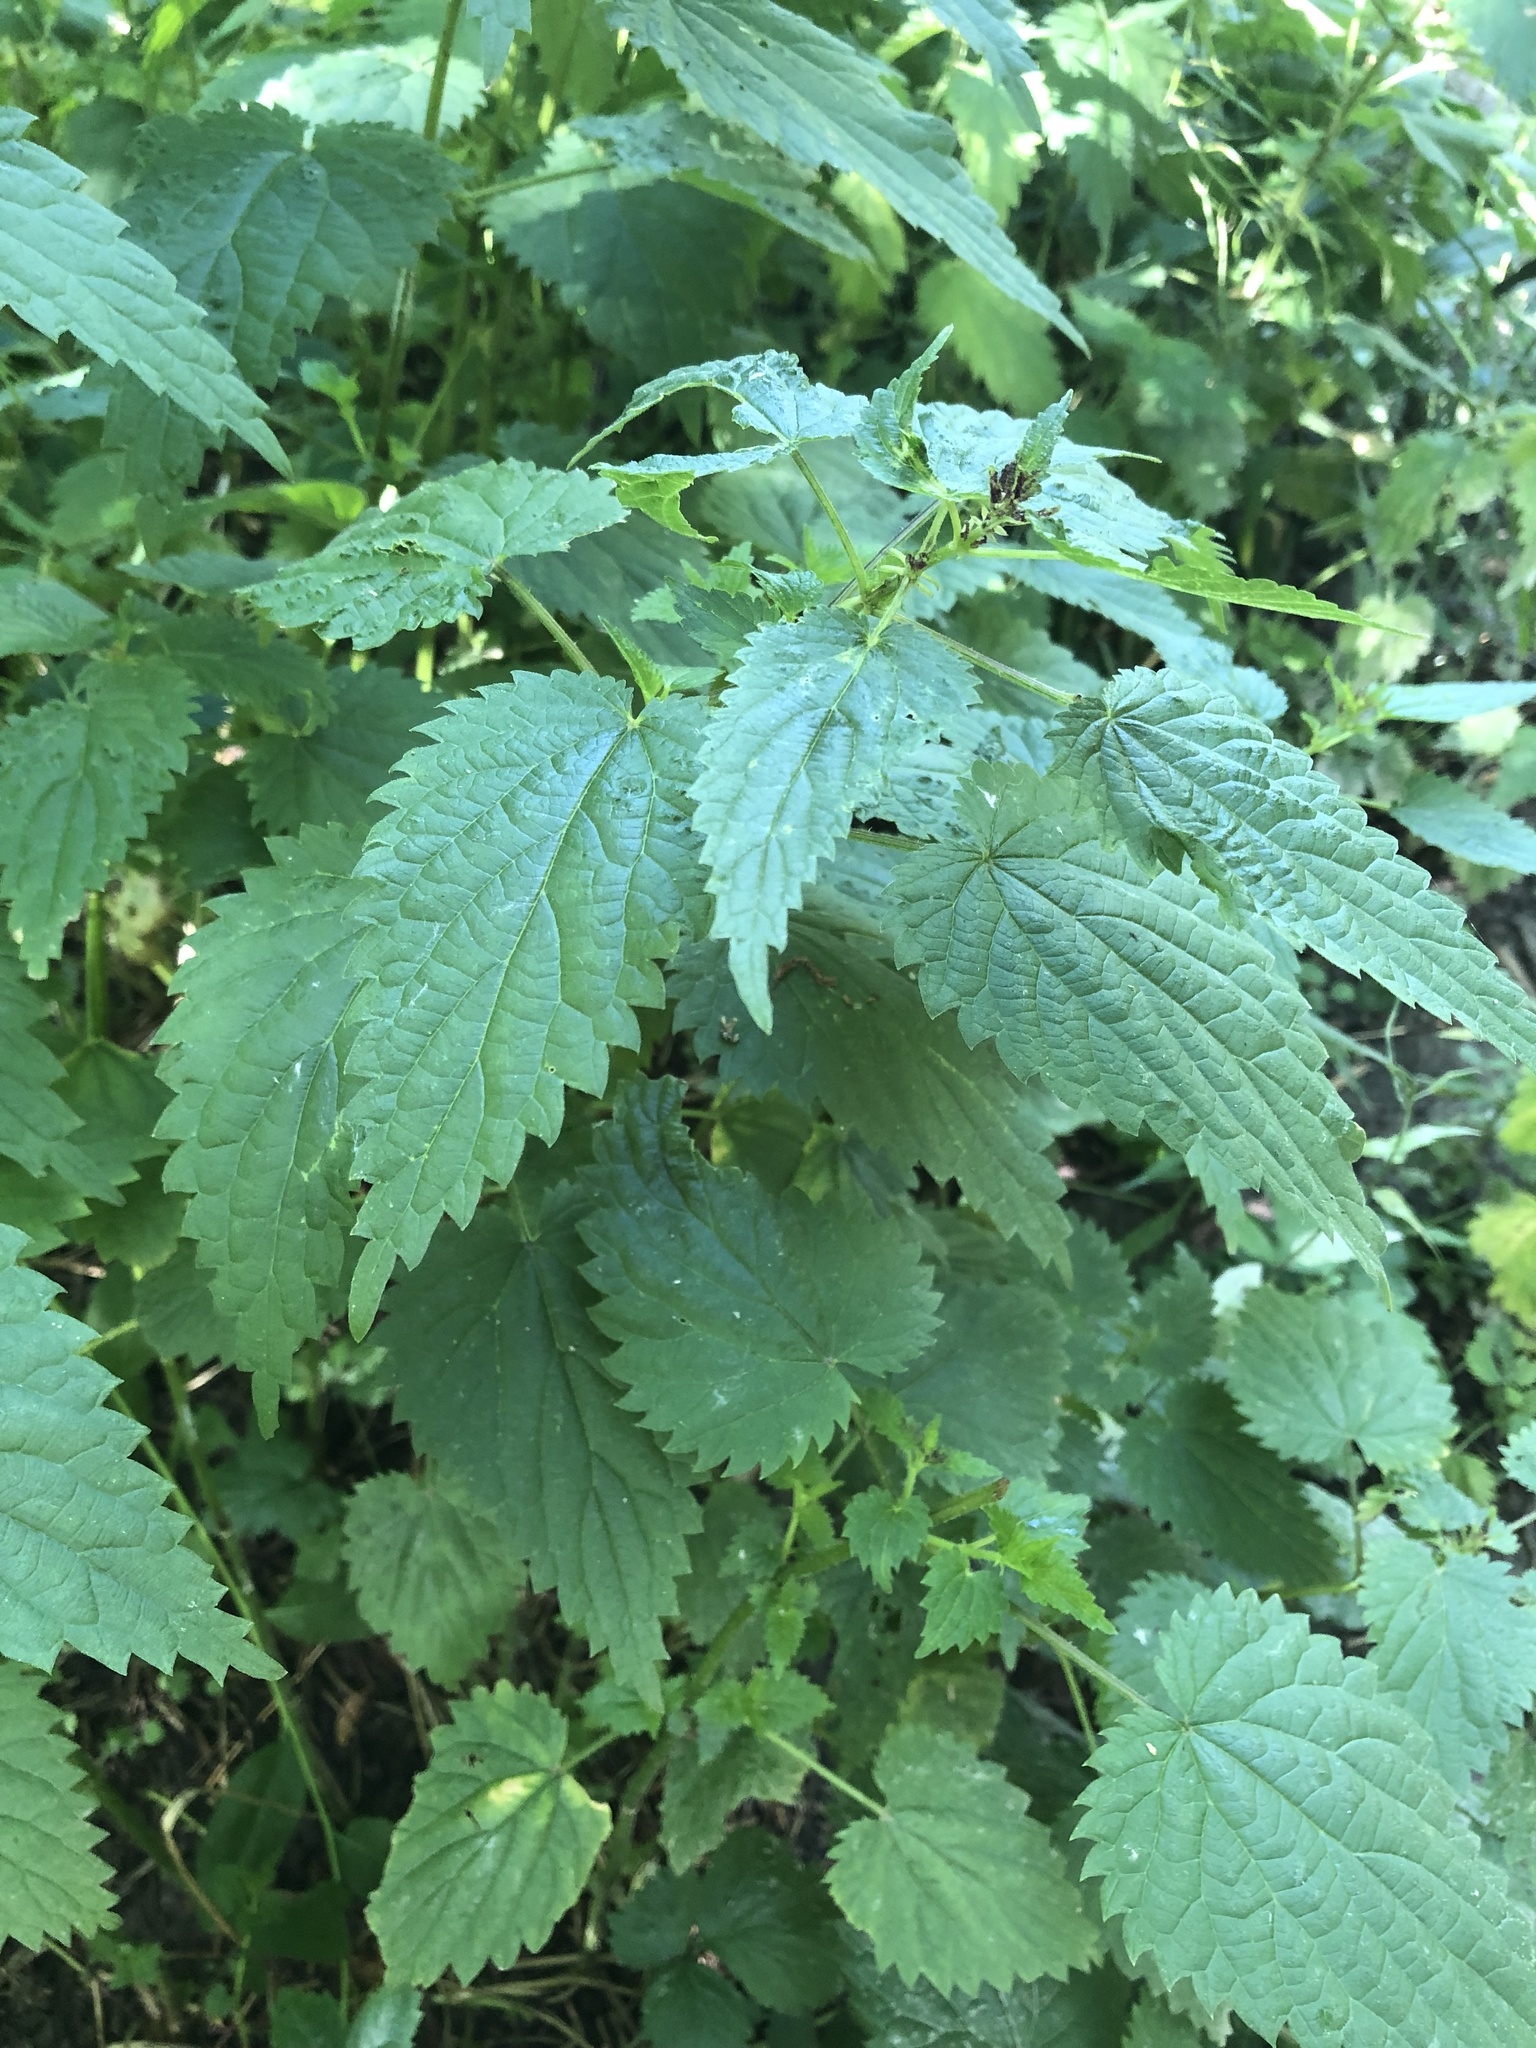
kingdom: Plantae
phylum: Tracheophyta
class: Magnoliopsida
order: Rosales
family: Urticaceae
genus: Urtica
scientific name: Urtica dioica
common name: Common nettle
